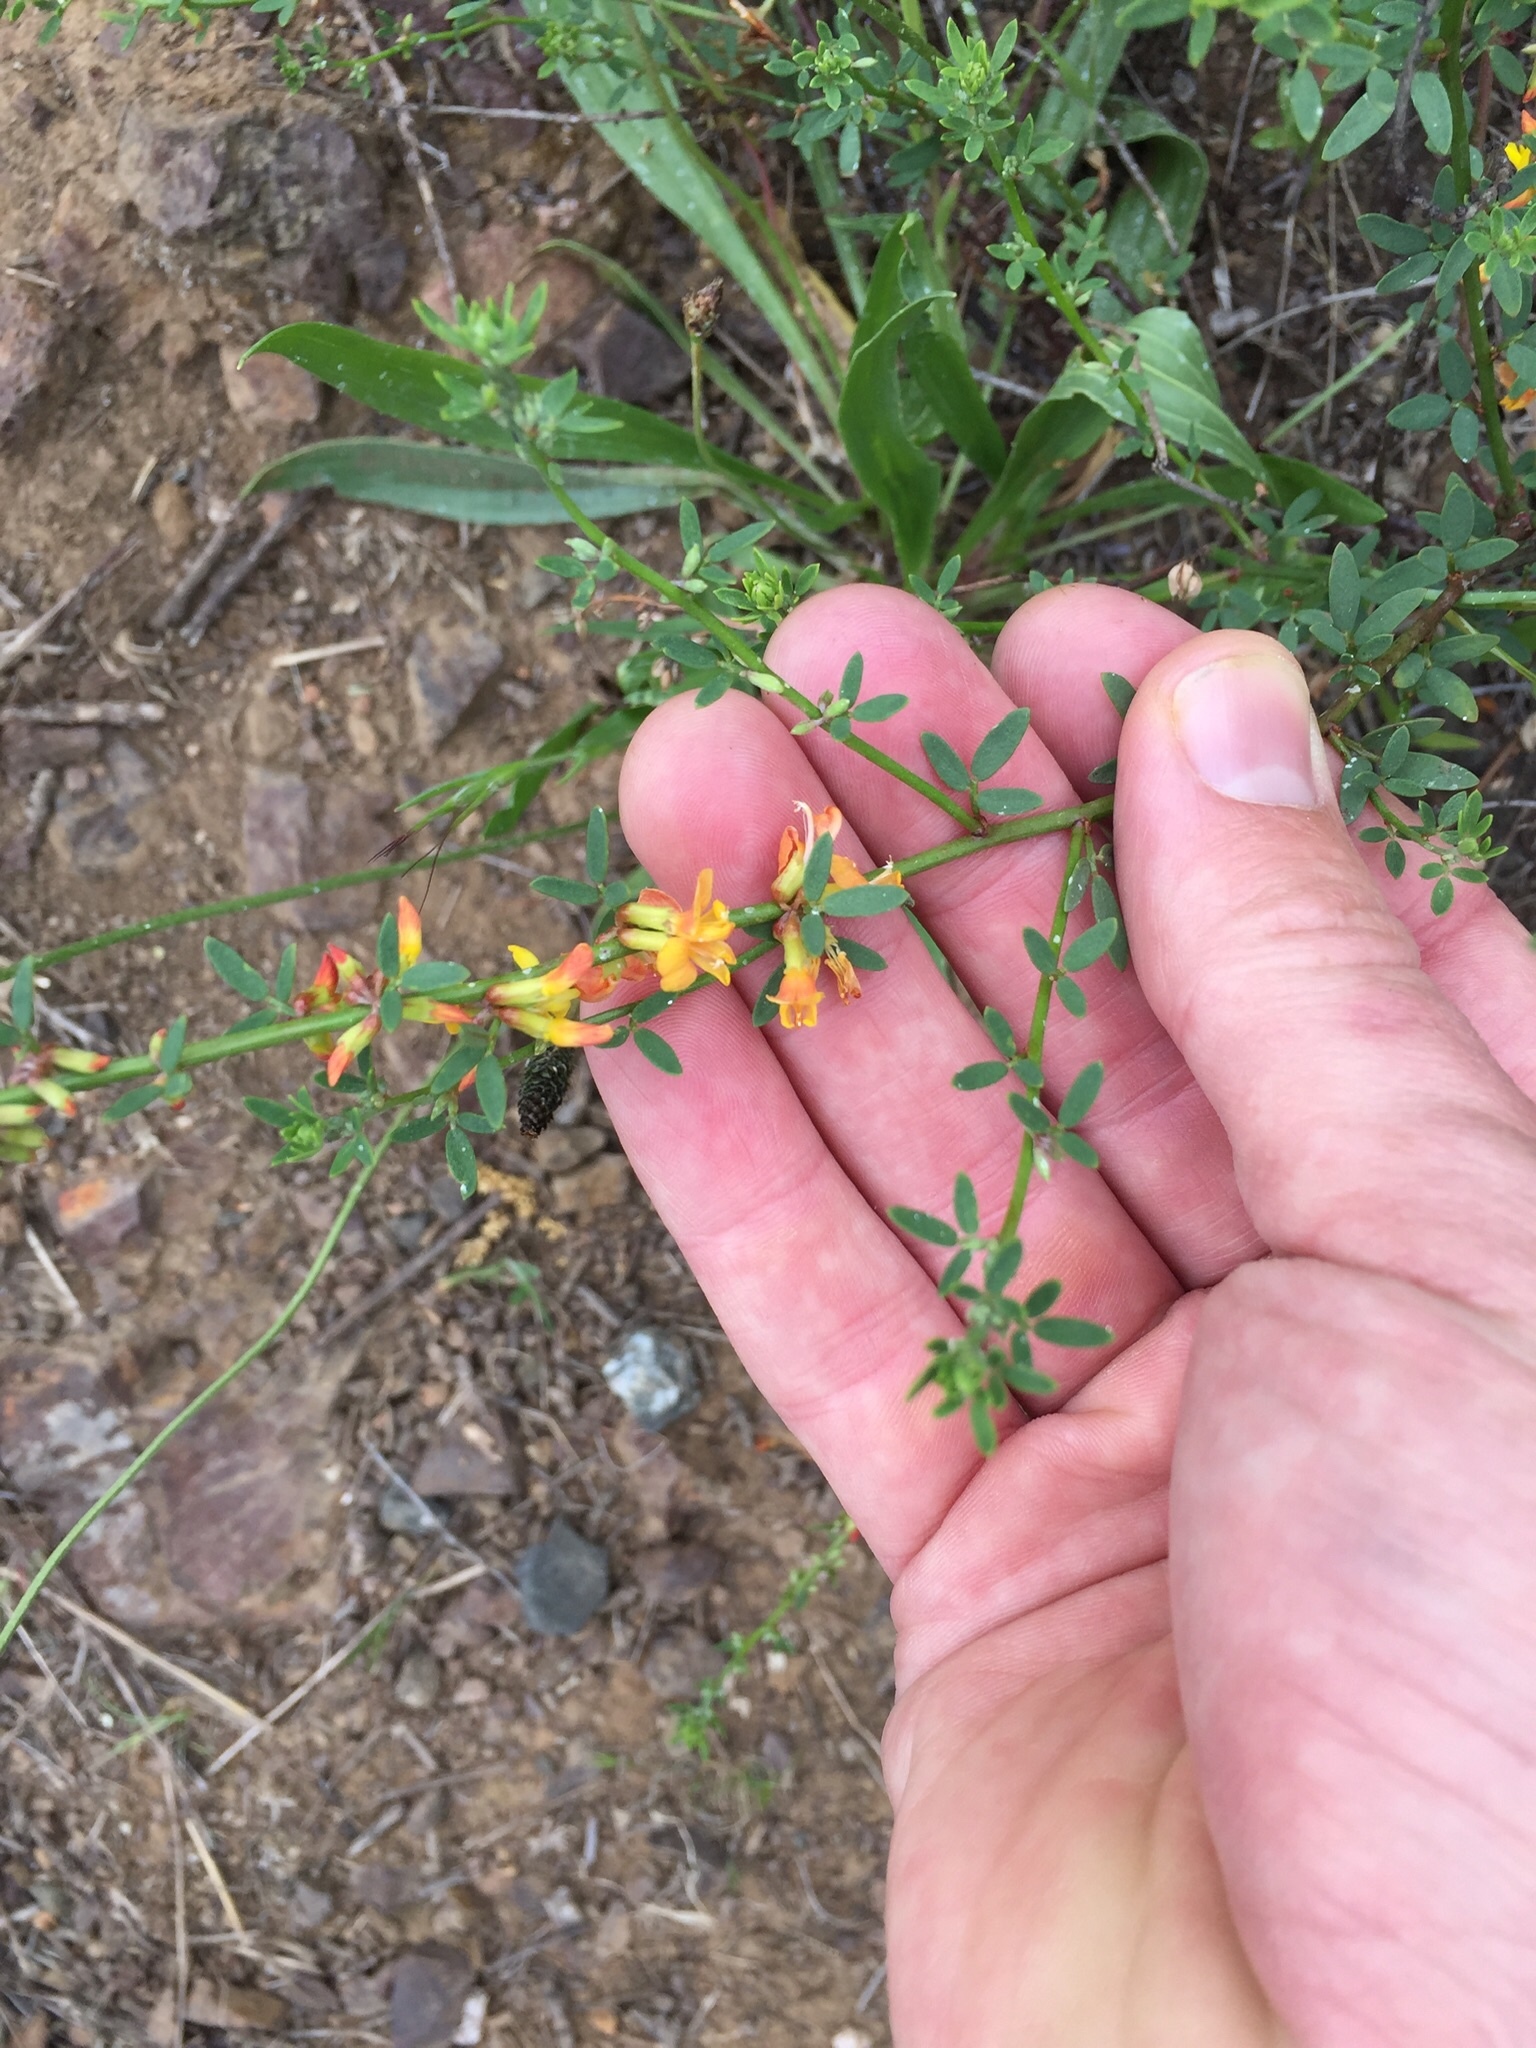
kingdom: Plantae
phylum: Tracheophyta
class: Magnoliopsida
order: Fabales
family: Fabaceae
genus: Acmispon
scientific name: Acmispon glaber
